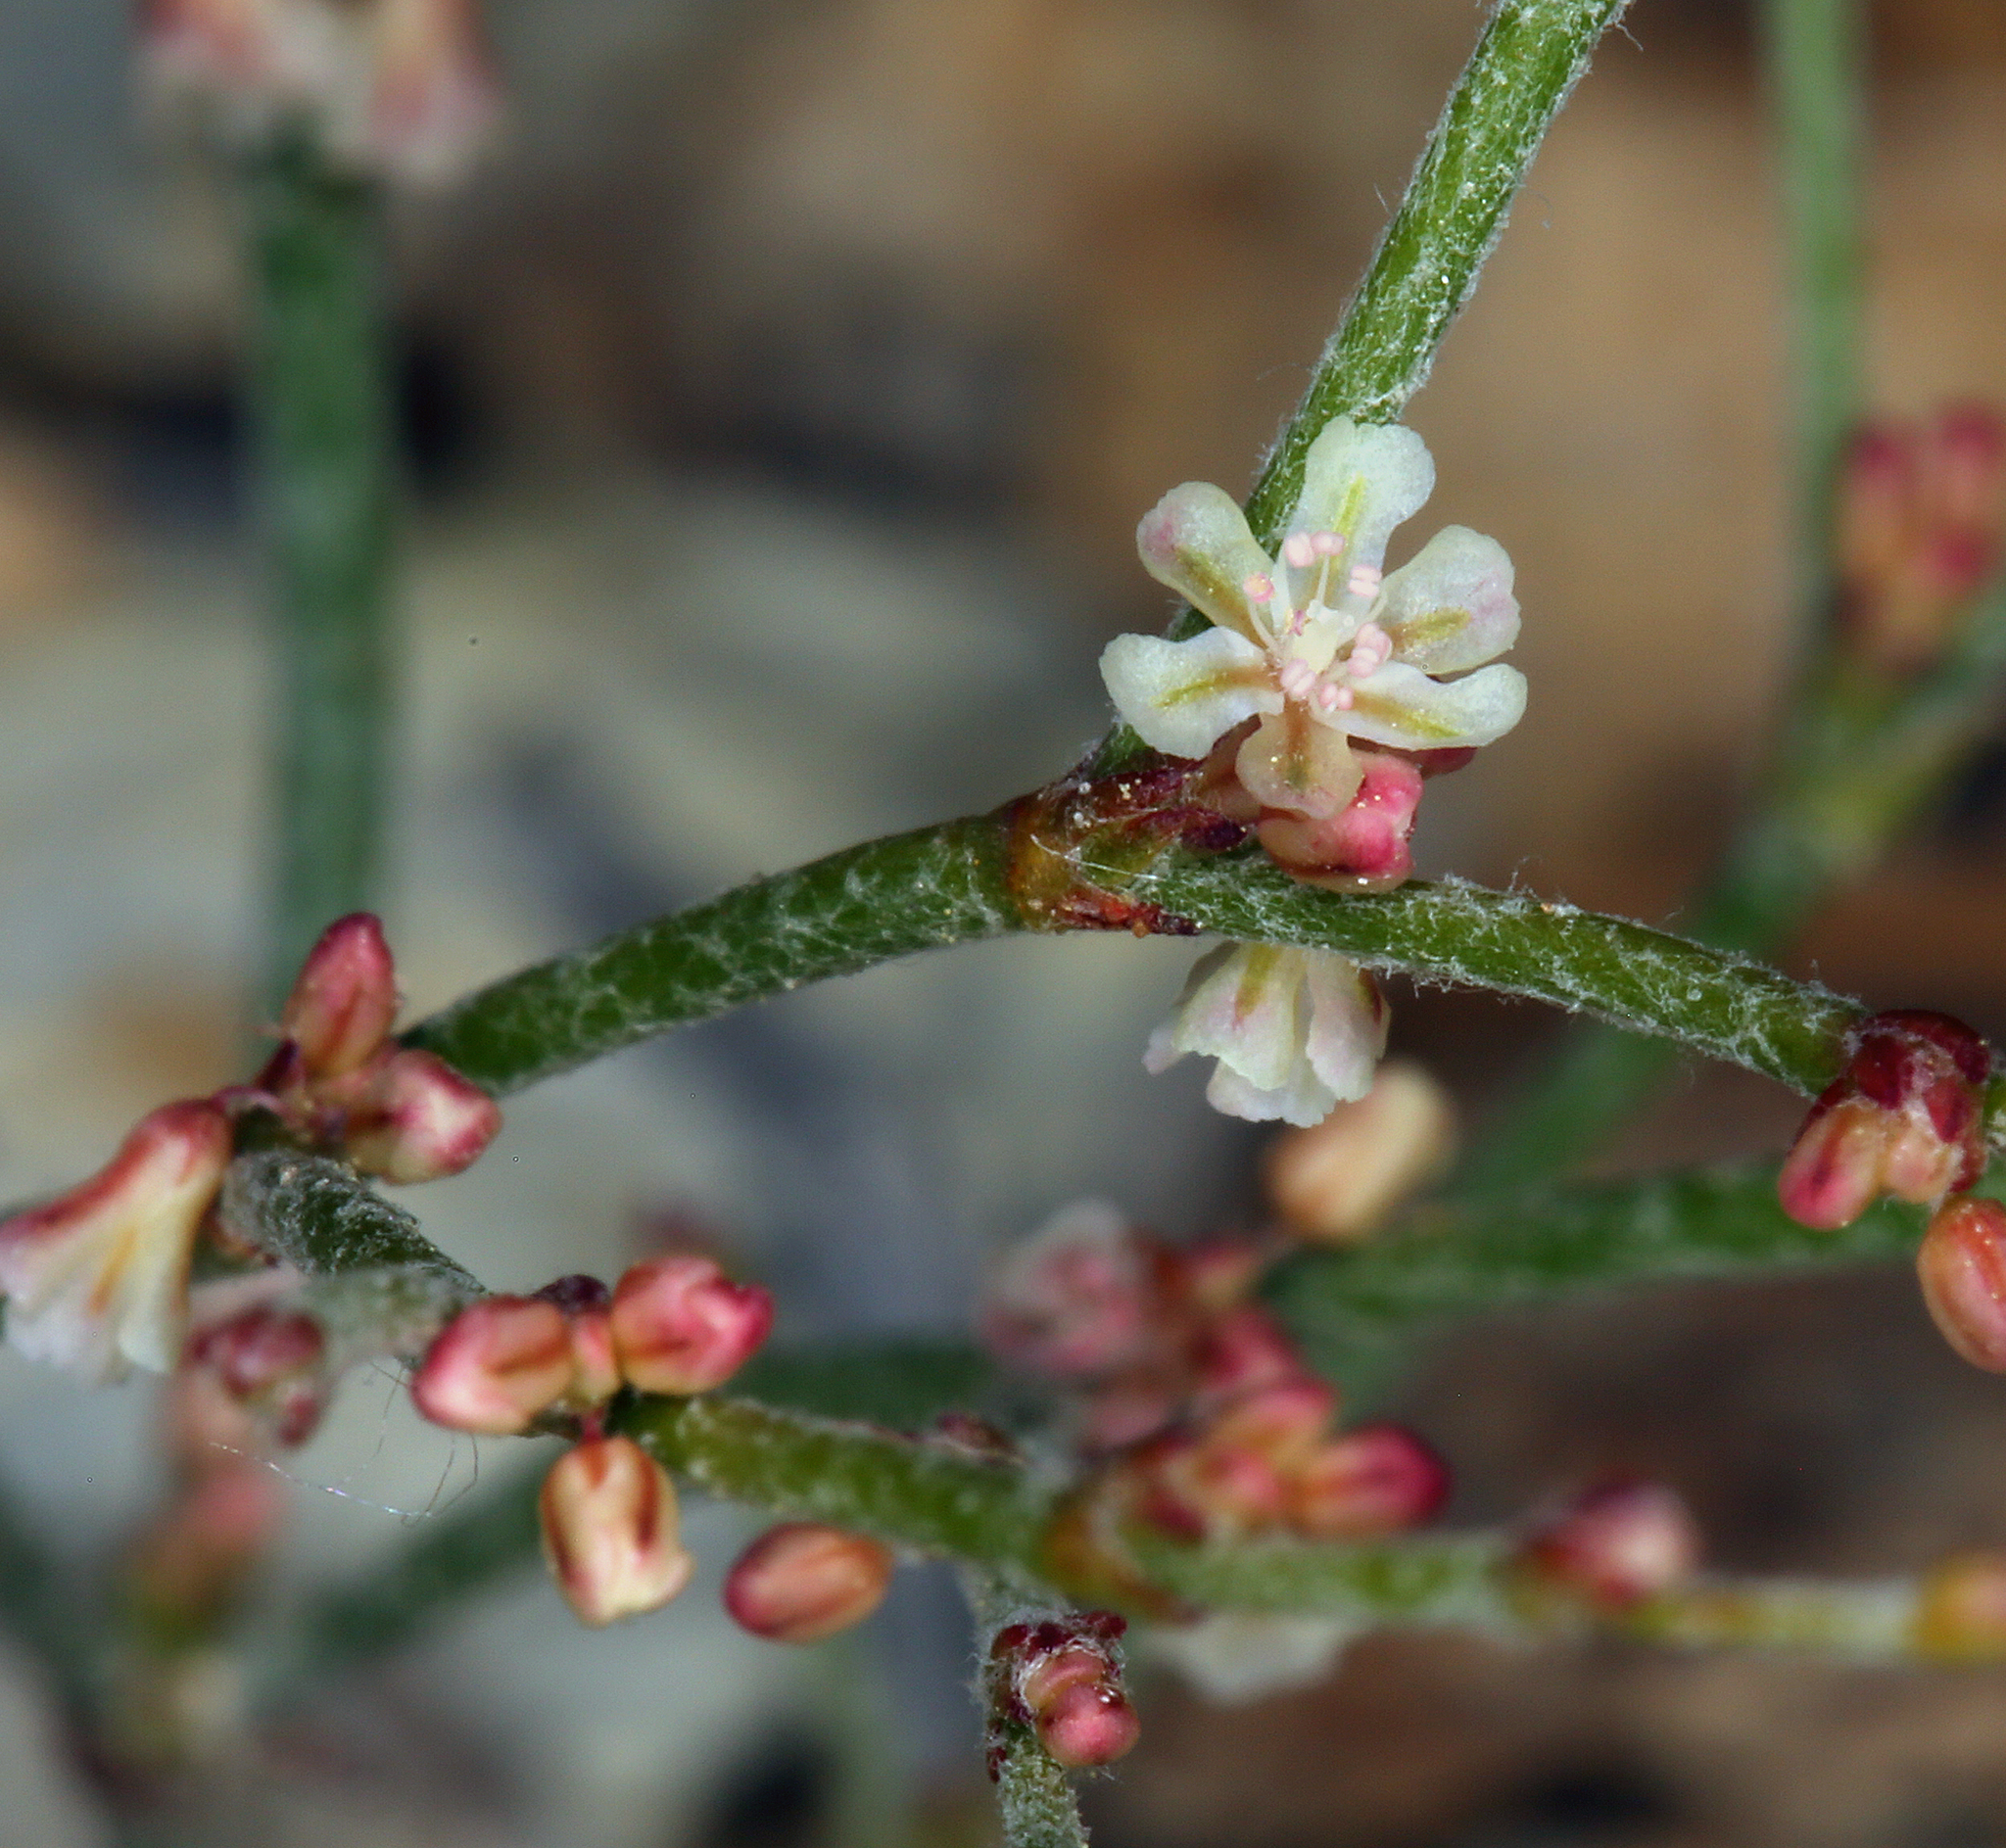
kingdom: Plantae
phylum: Tracheophyta
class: Magnoliopsida
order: Caryophyllales
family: Polygonaceae
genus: Eriogonum
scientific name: Eriogonum palmerianum
